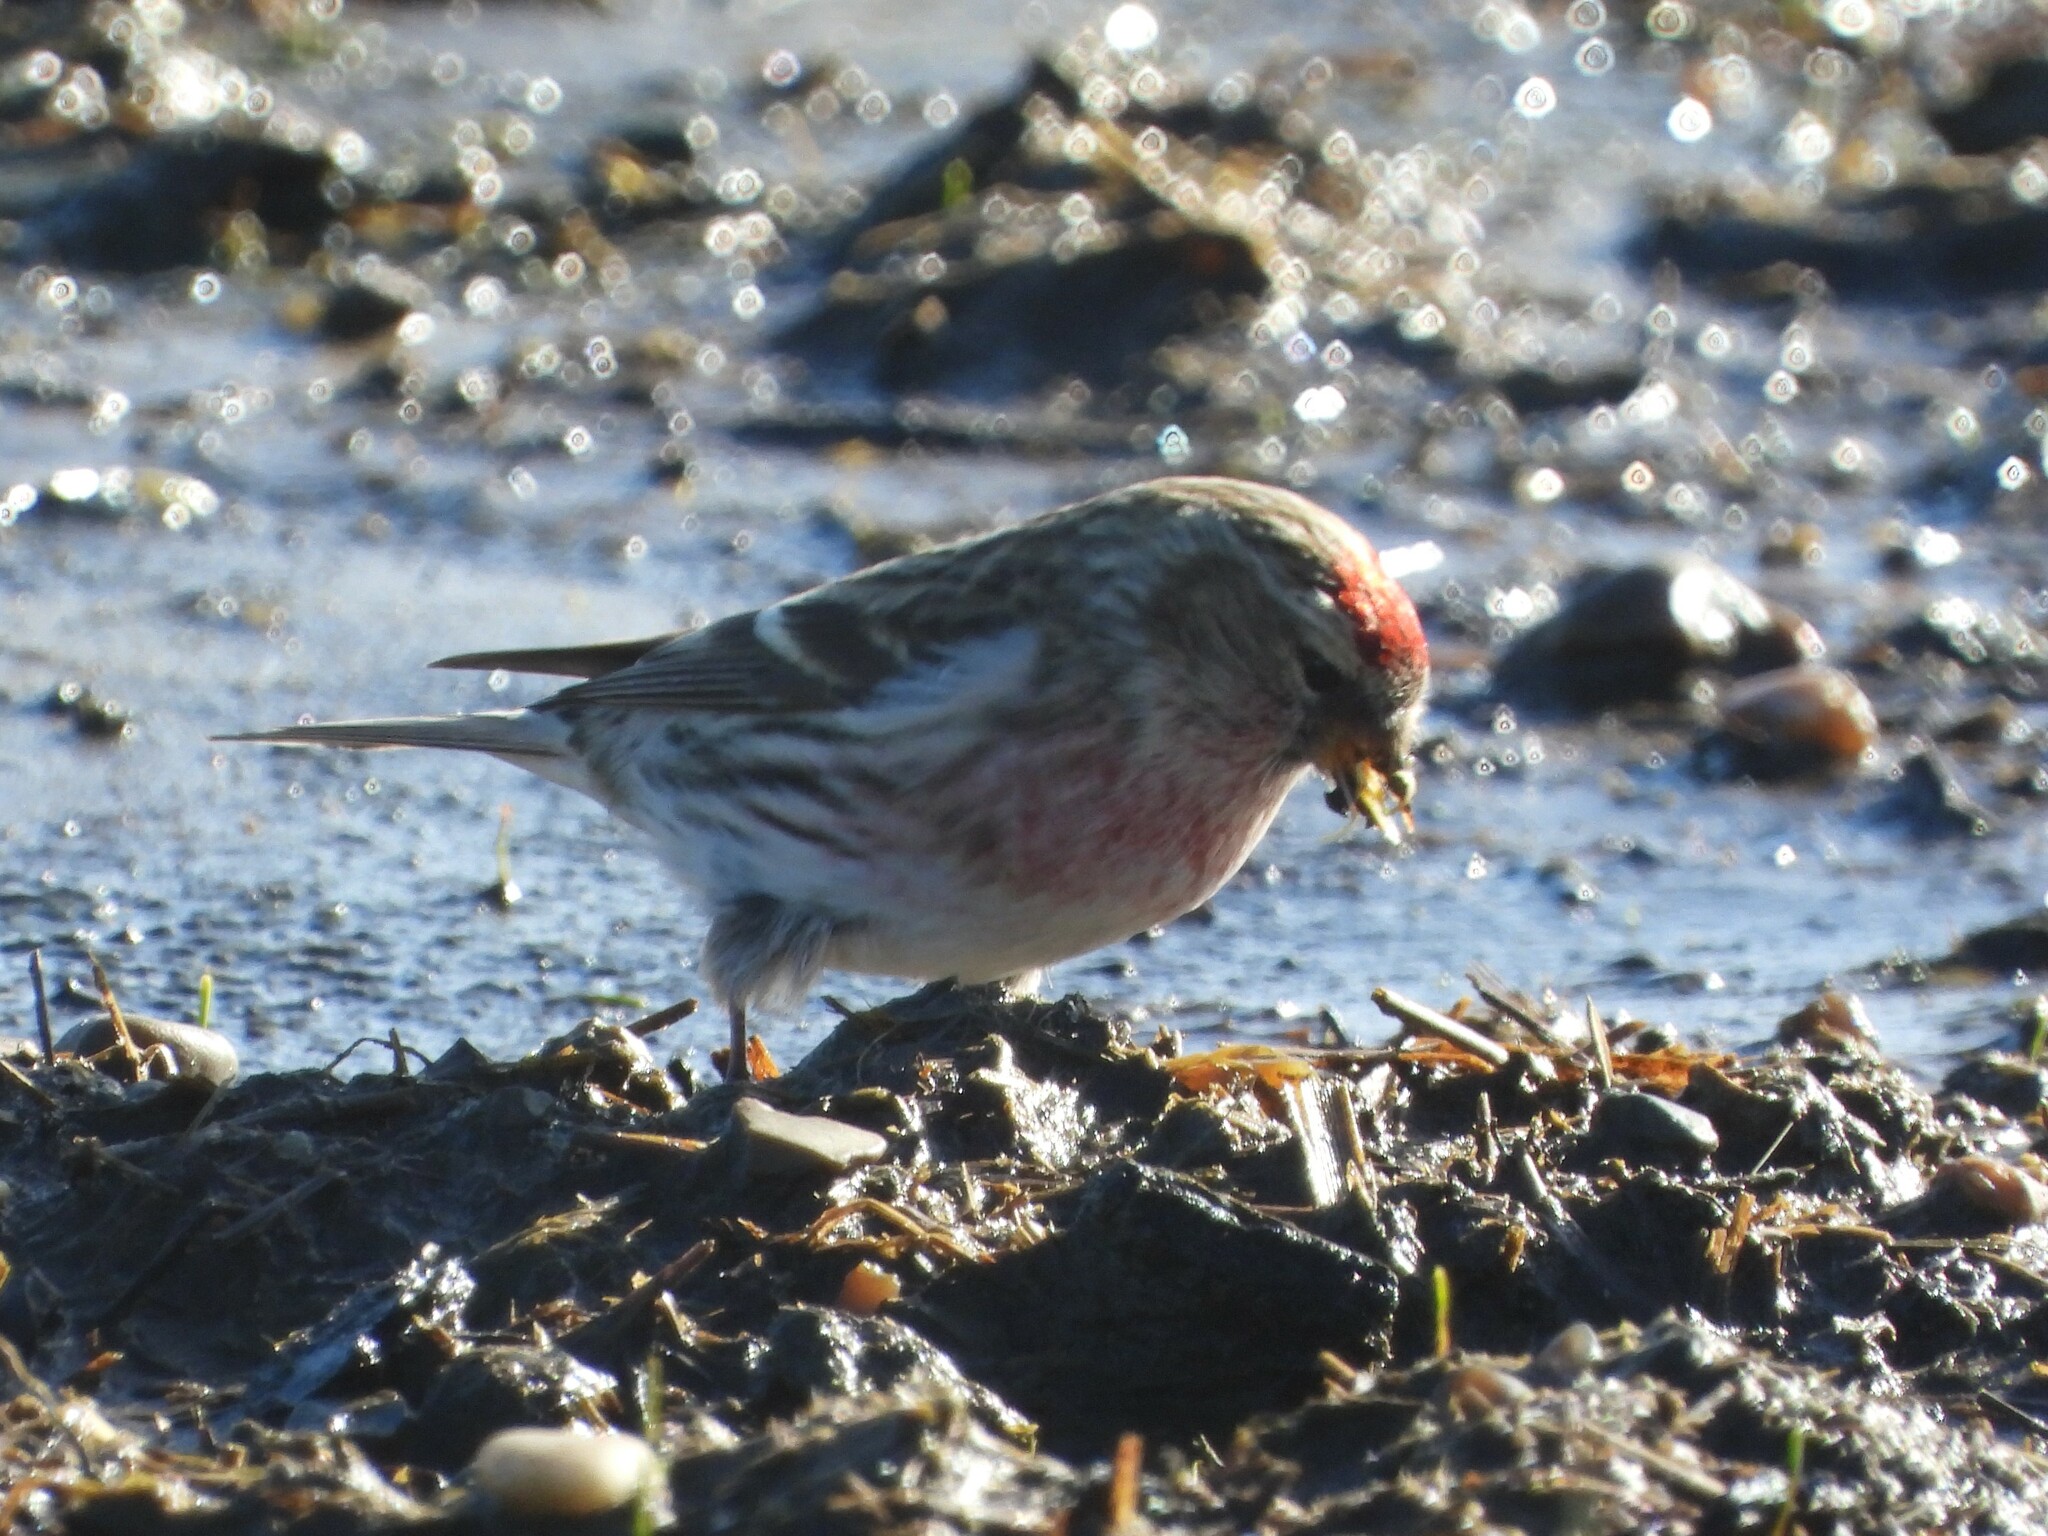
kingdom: Animalia
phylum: Chordata
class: Aves
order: Passeriformes
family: Fringillidae
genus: Acanthis
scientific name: Acanthis flammea
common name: Common redpoll
